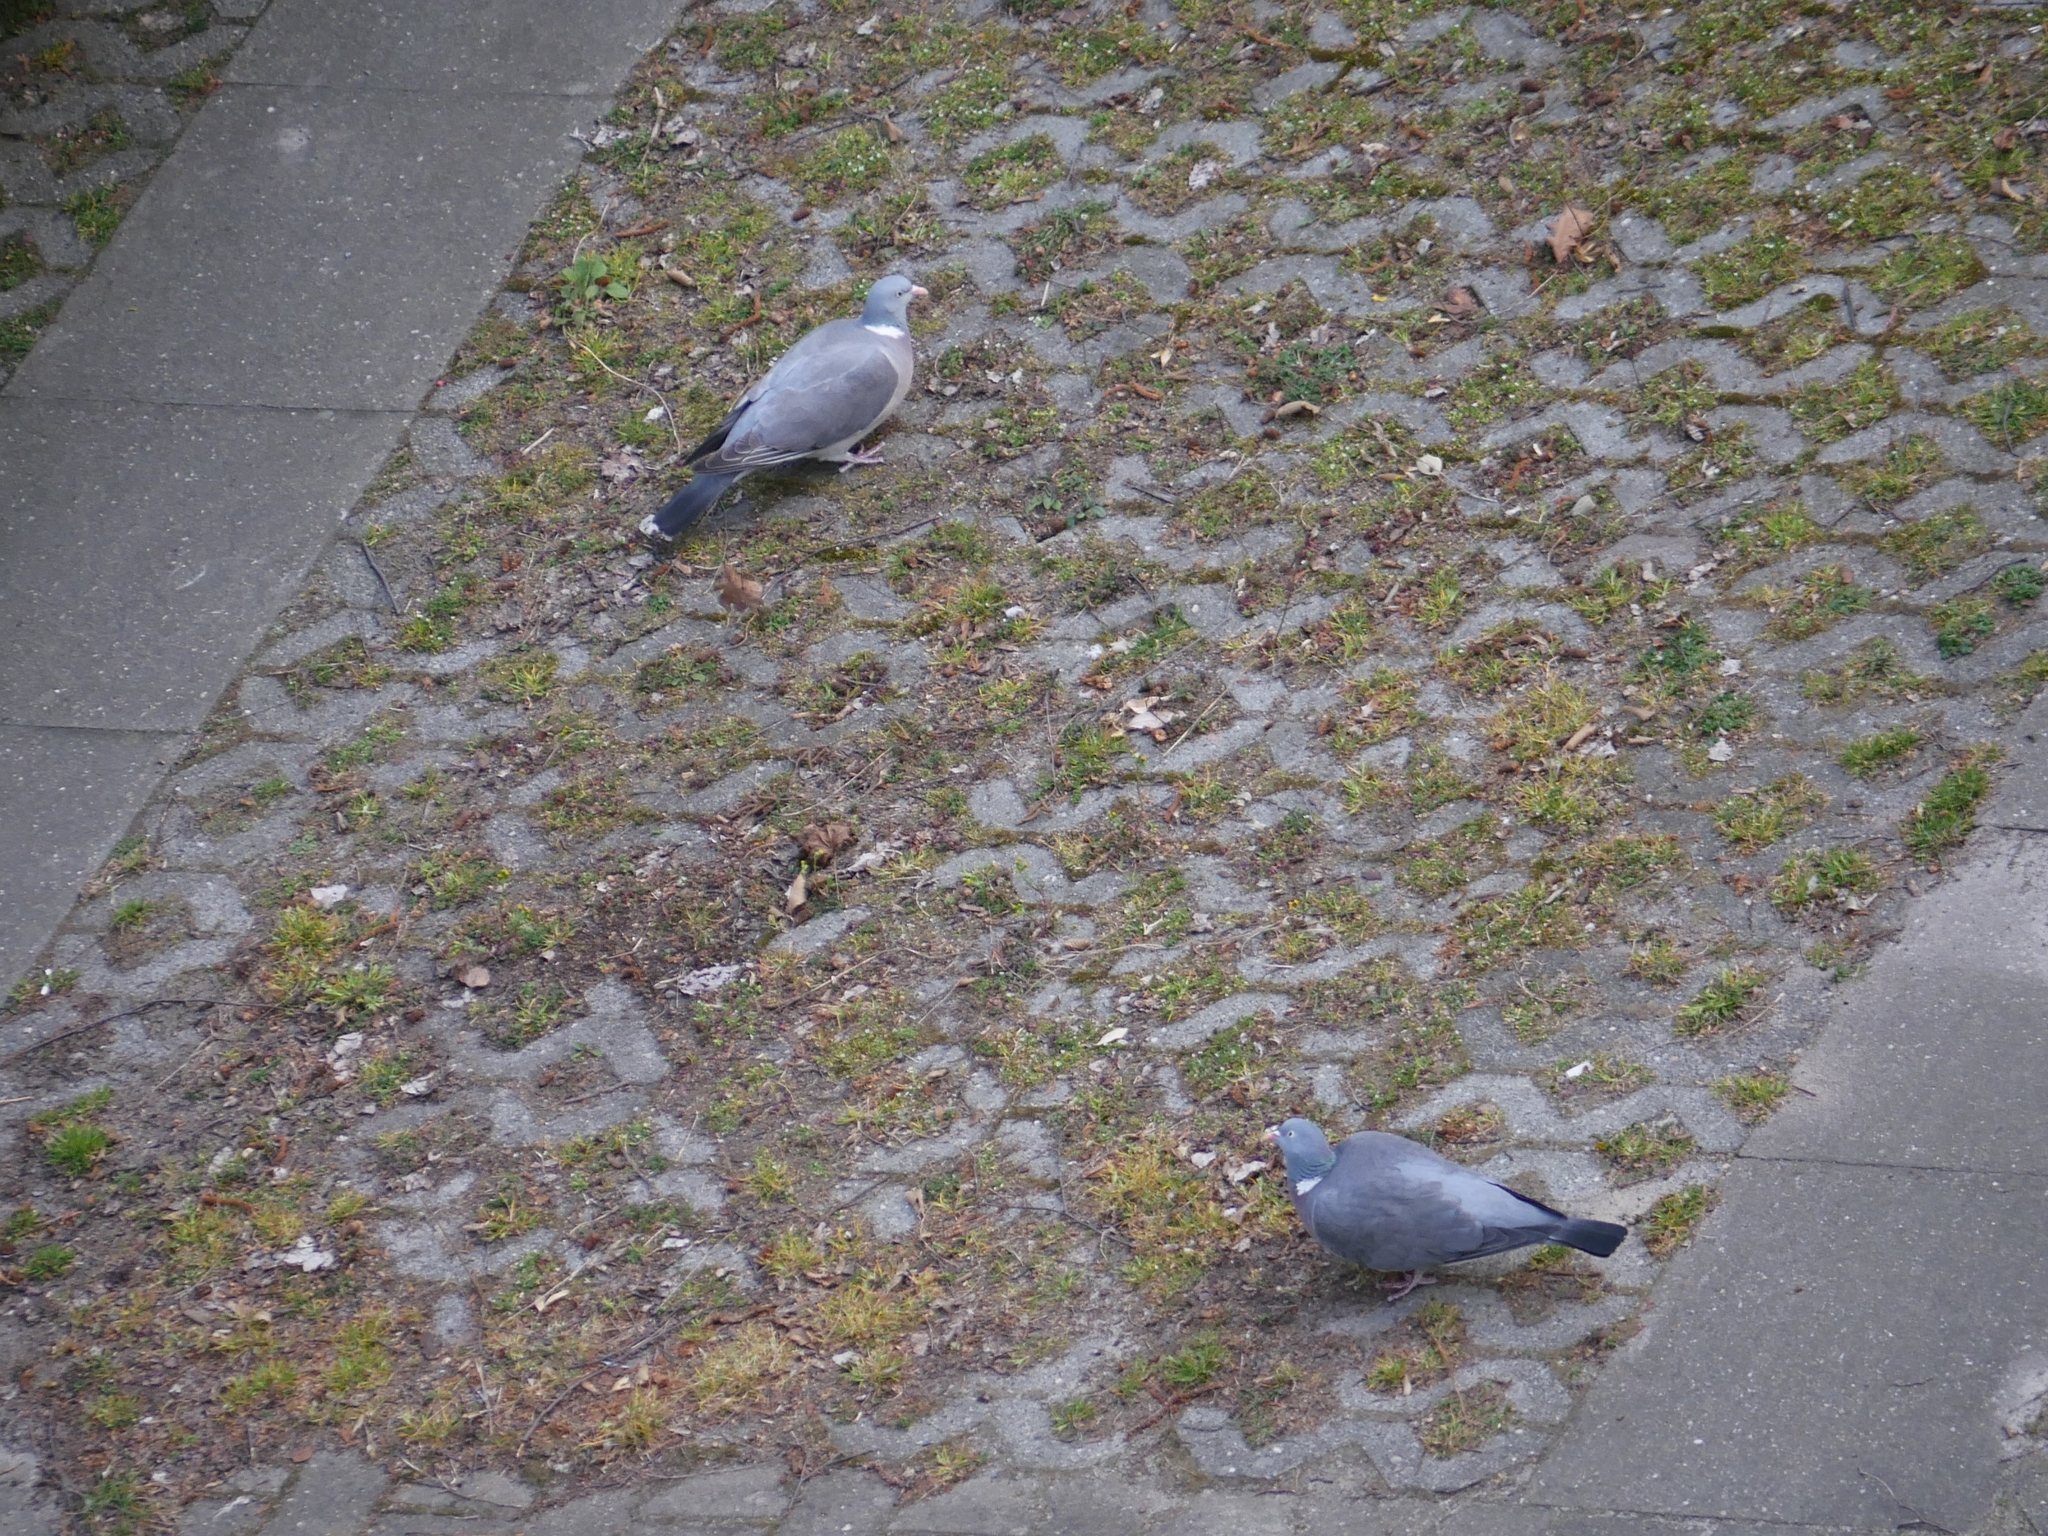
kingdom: Animalia
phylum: Chordata
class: Aves
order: Columbiformes
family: Columbidae
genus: Columba
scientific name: Columba palumbus
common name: Common wood pigeon
